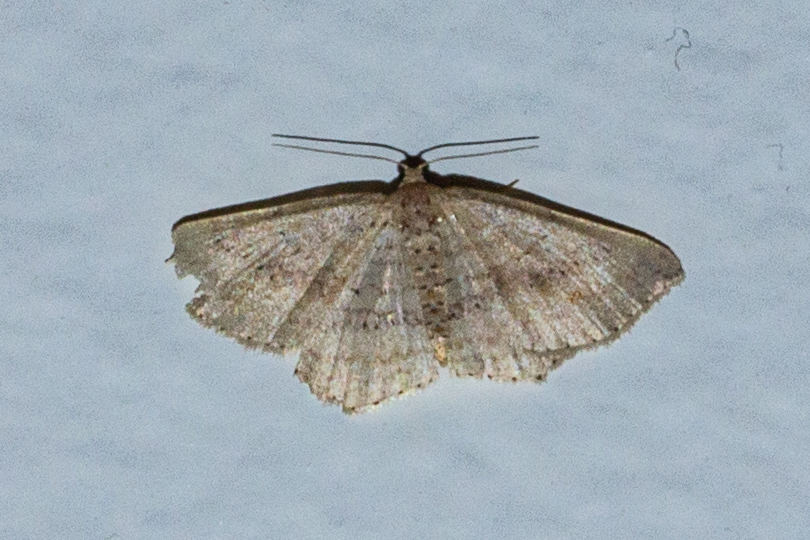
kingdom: Animalia
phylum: Arthropoda
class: Insecta
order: Lepidoptera
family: Geometridae
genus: Epicyme
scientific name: Epicyme rubropunctaria
